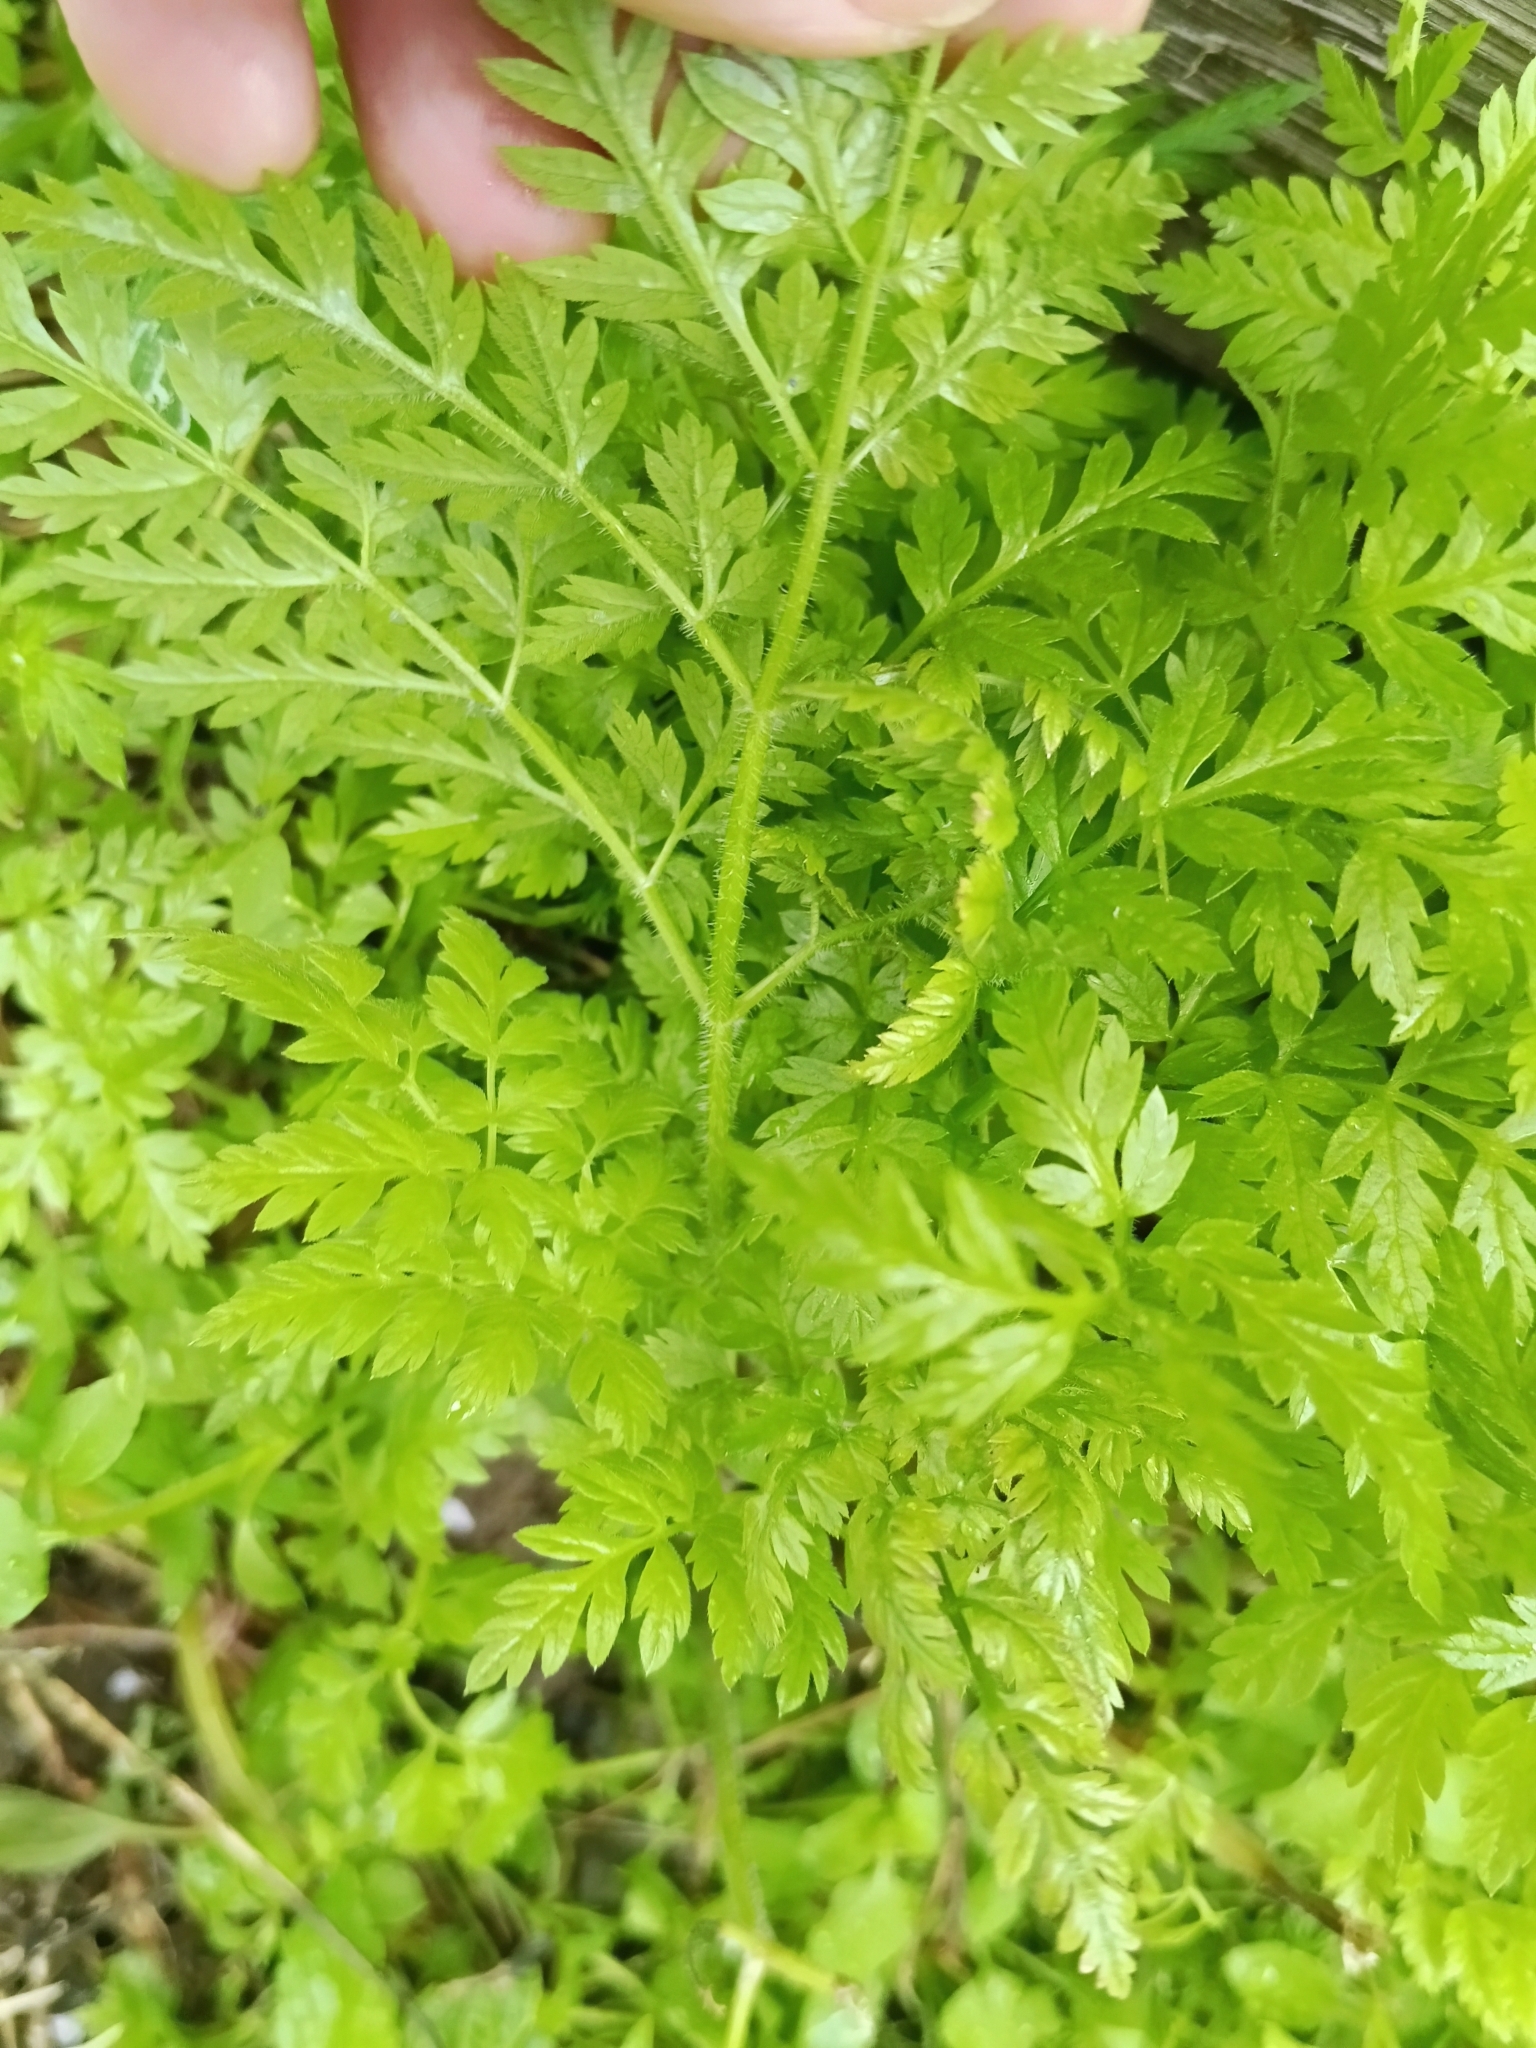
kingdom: Plantae
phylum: Tracheophyta
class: Magnoliopsida
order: Apiales
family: Apiaceae
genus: Anthriscus
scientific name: Anthriscus sylvestris
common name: Cow parsley
